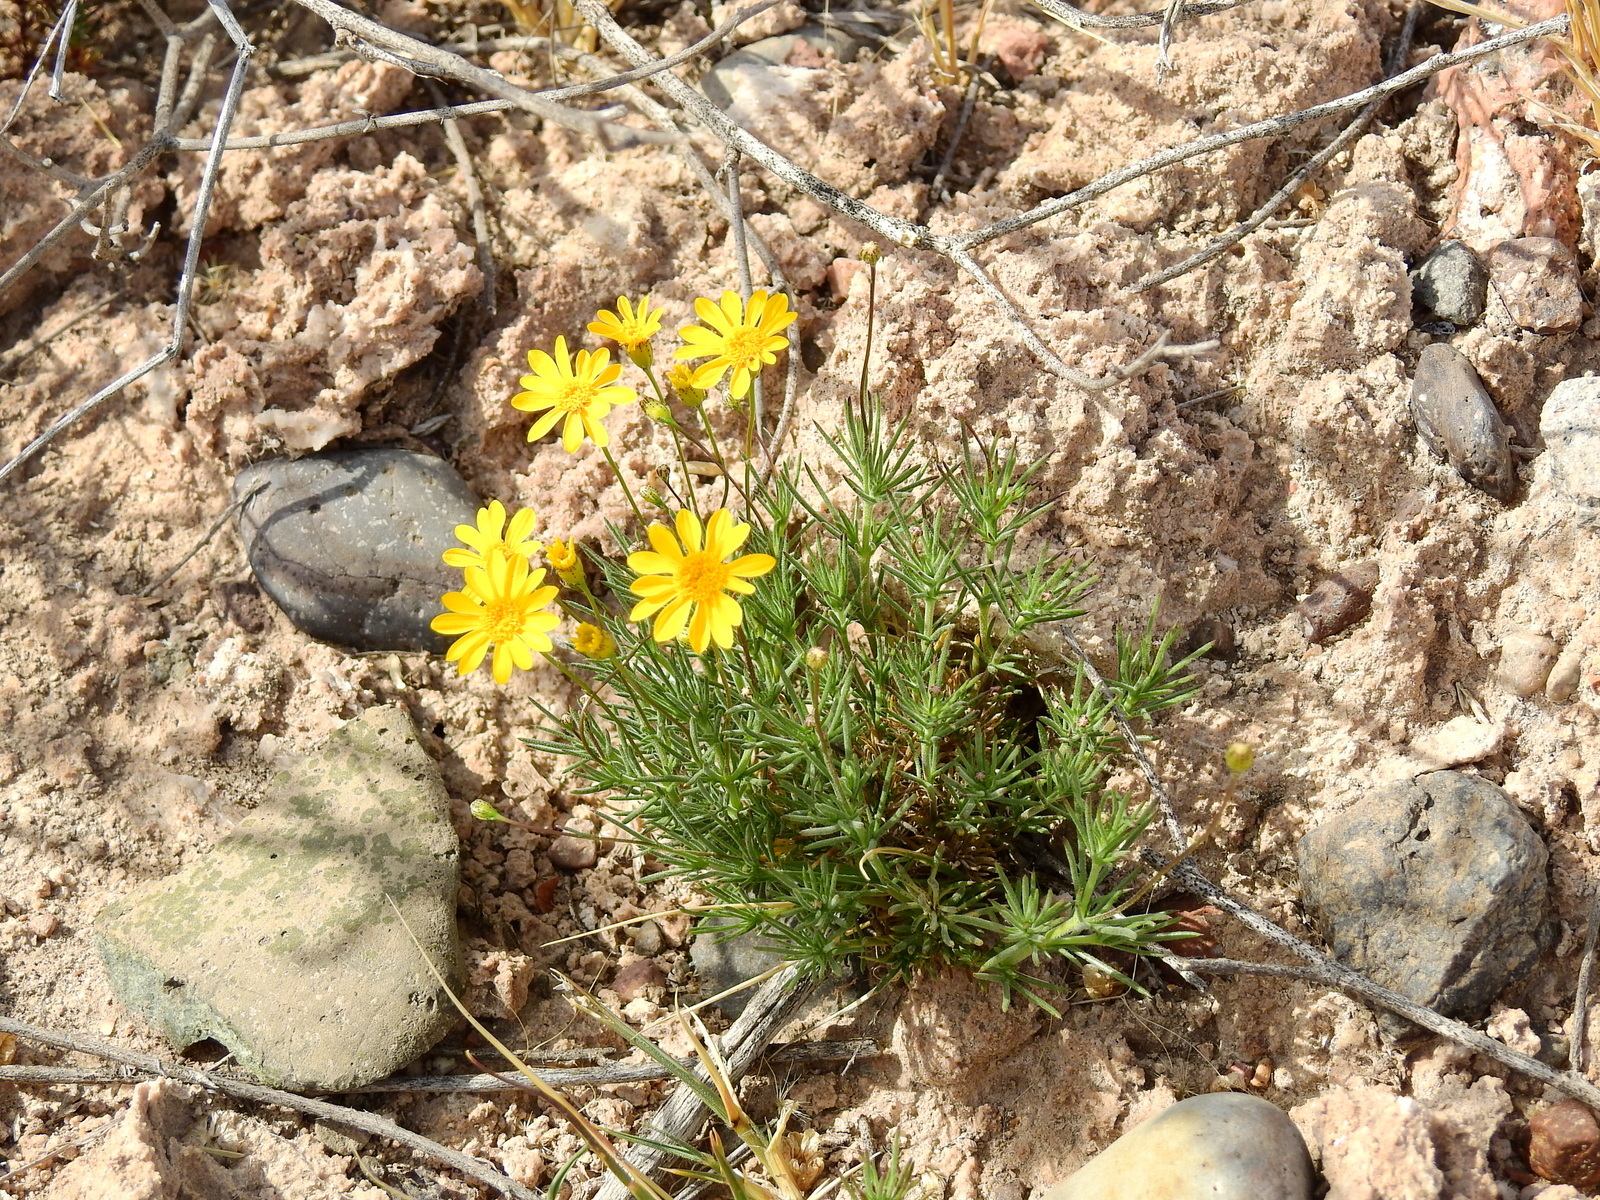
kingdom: Plantae
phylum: Tracheophyta
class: Magnoliopsida
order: Asterales
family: Asteraceae
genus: Thymophylla
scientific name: Thymophylla pentachaeta
